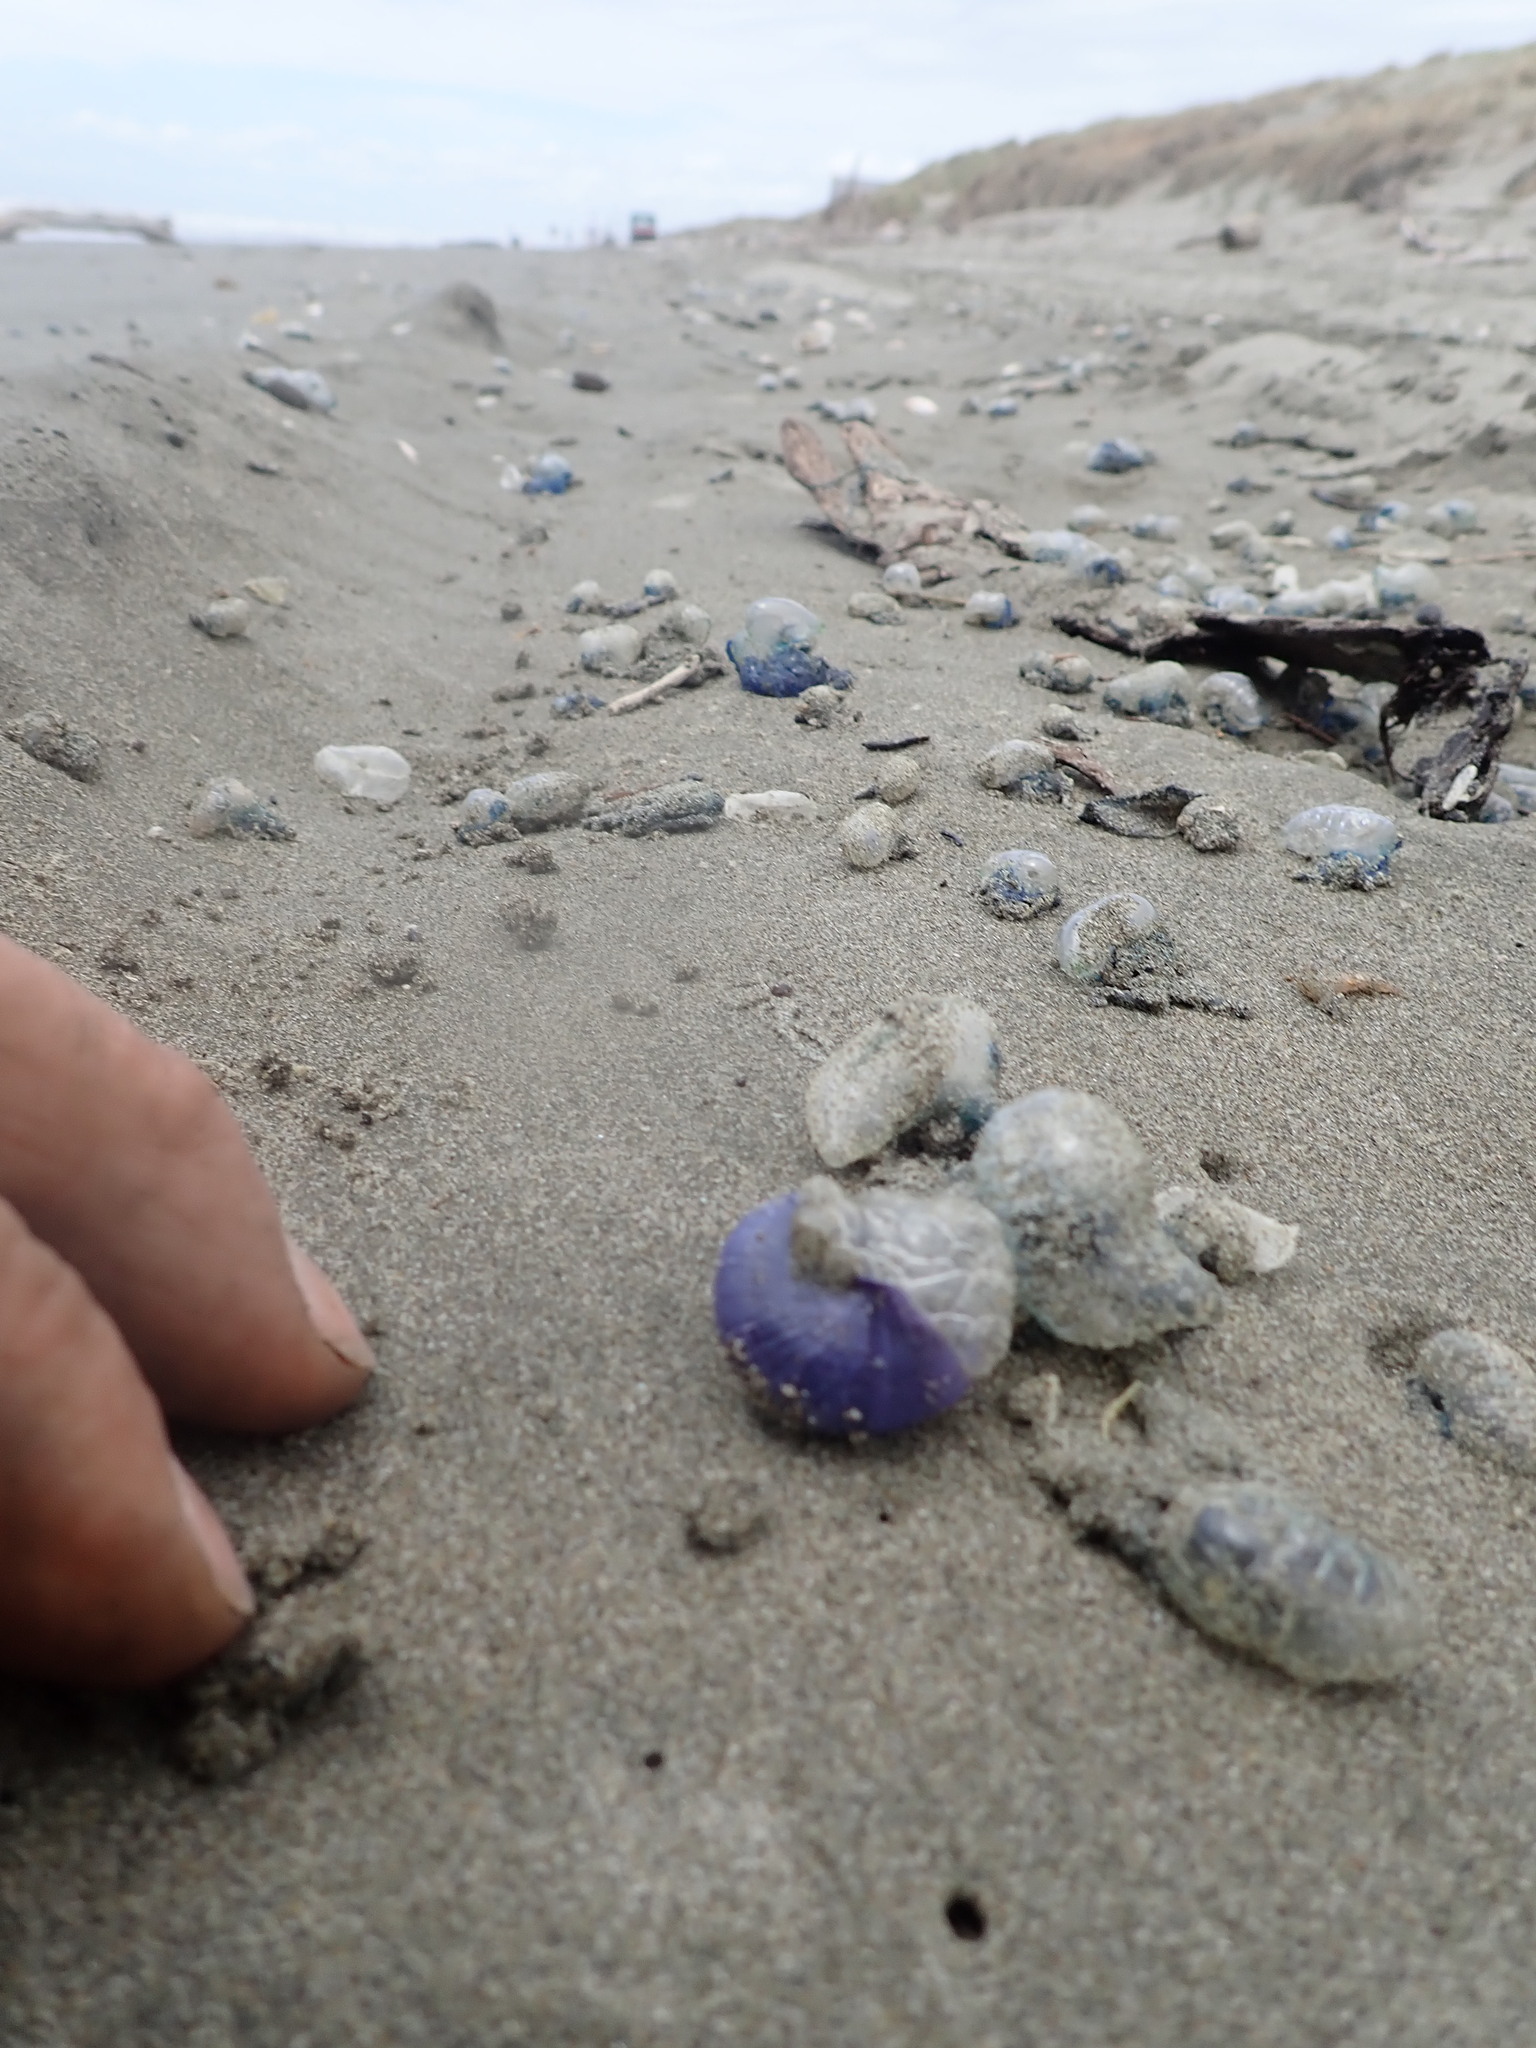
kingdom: Animalia
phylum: Mollusca
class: Gastropoda
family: Epitoniidae
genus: Janthina
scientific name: Janthina janthina
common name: Common janthina
